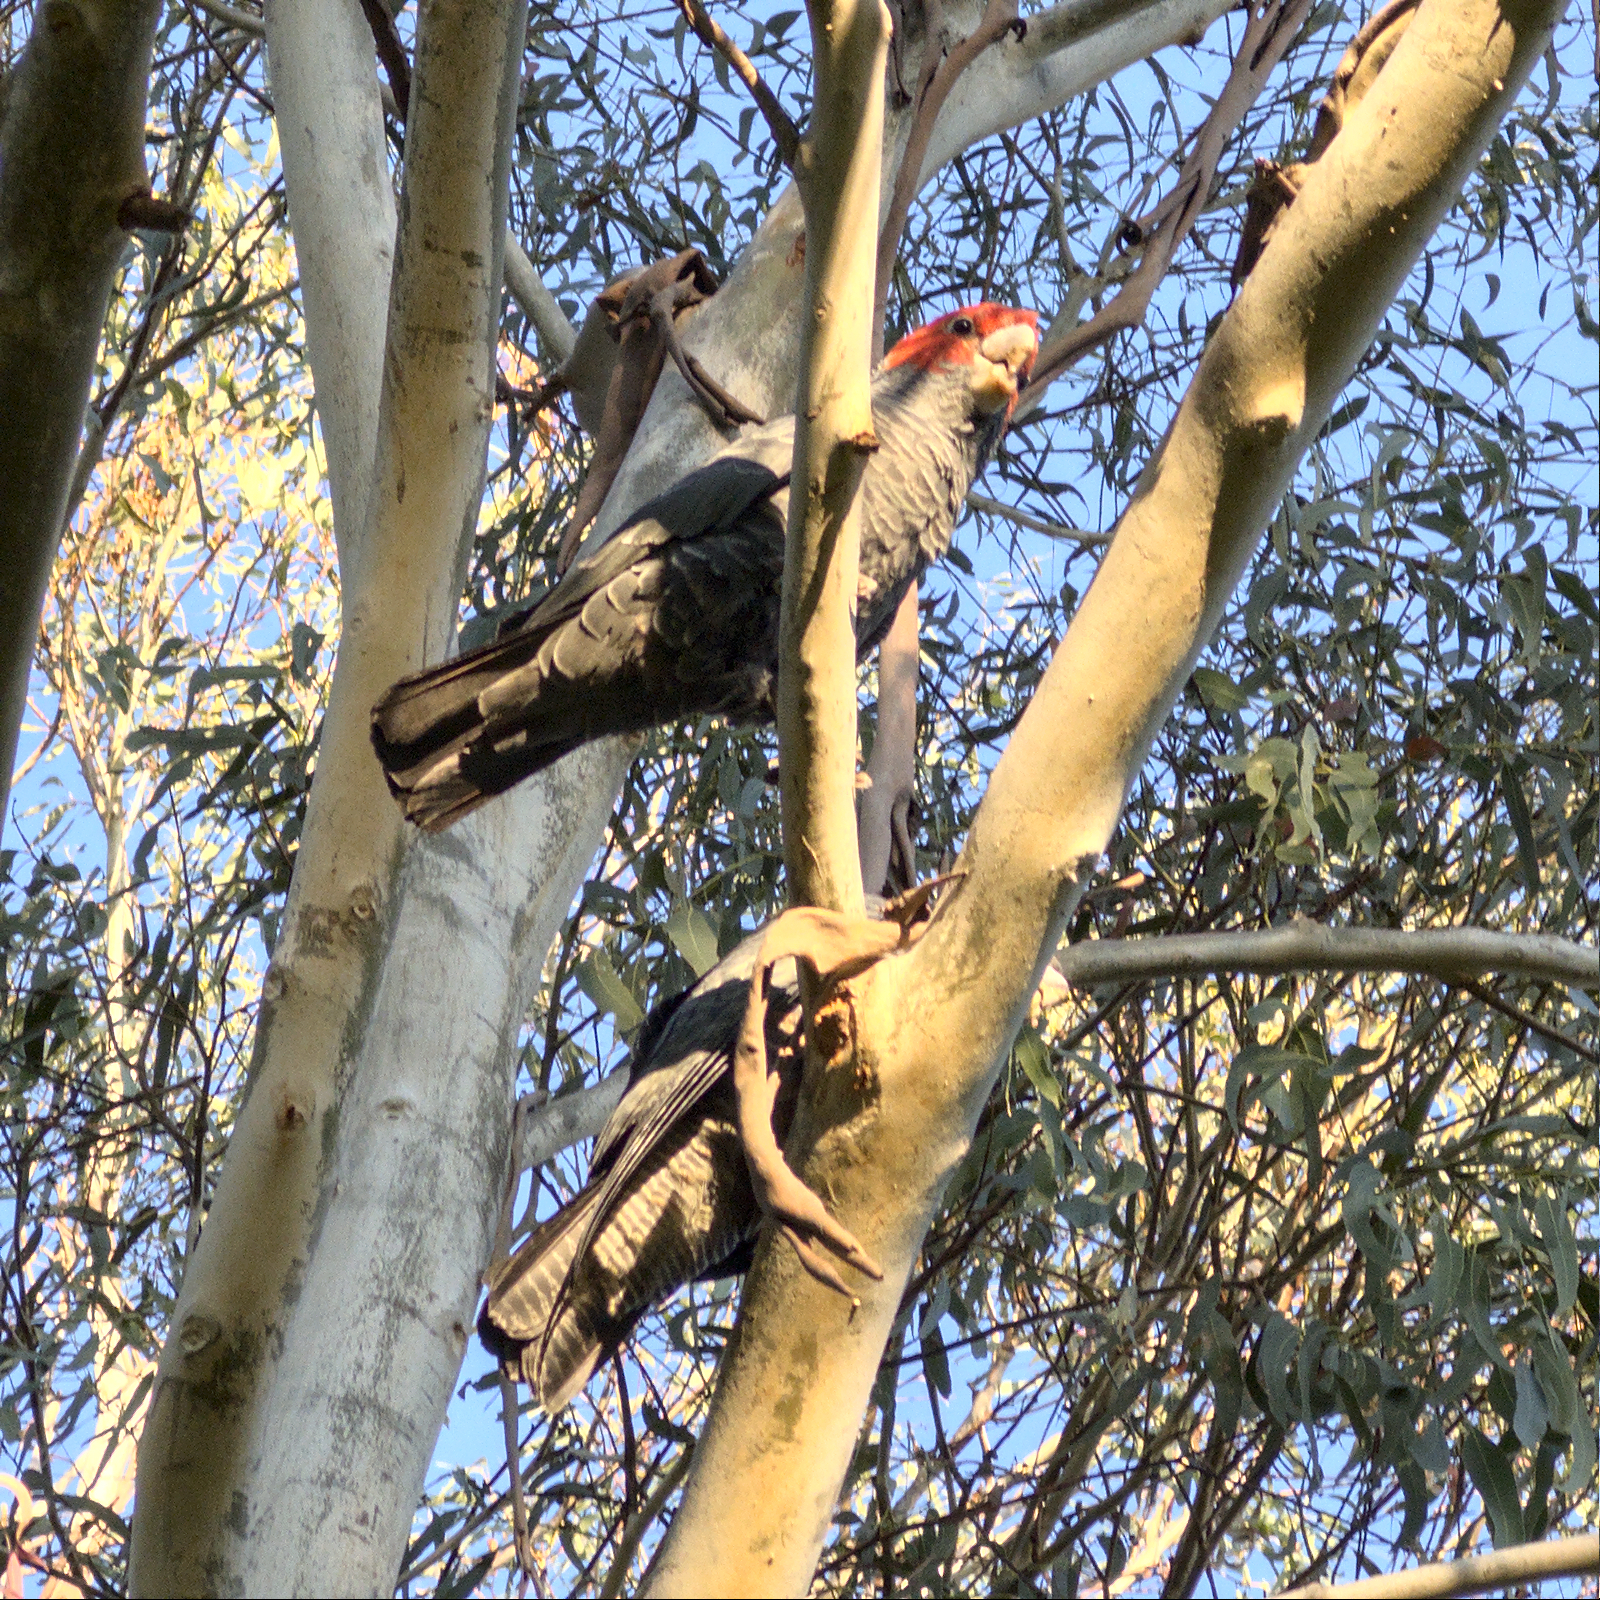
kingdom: Animalia
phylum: Chordata
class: Aves
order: Psittaciformes
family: Psittacidae
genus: Callocephalon
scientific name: Callocephalon fimbriatum
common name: Gang-gang cockatoo
